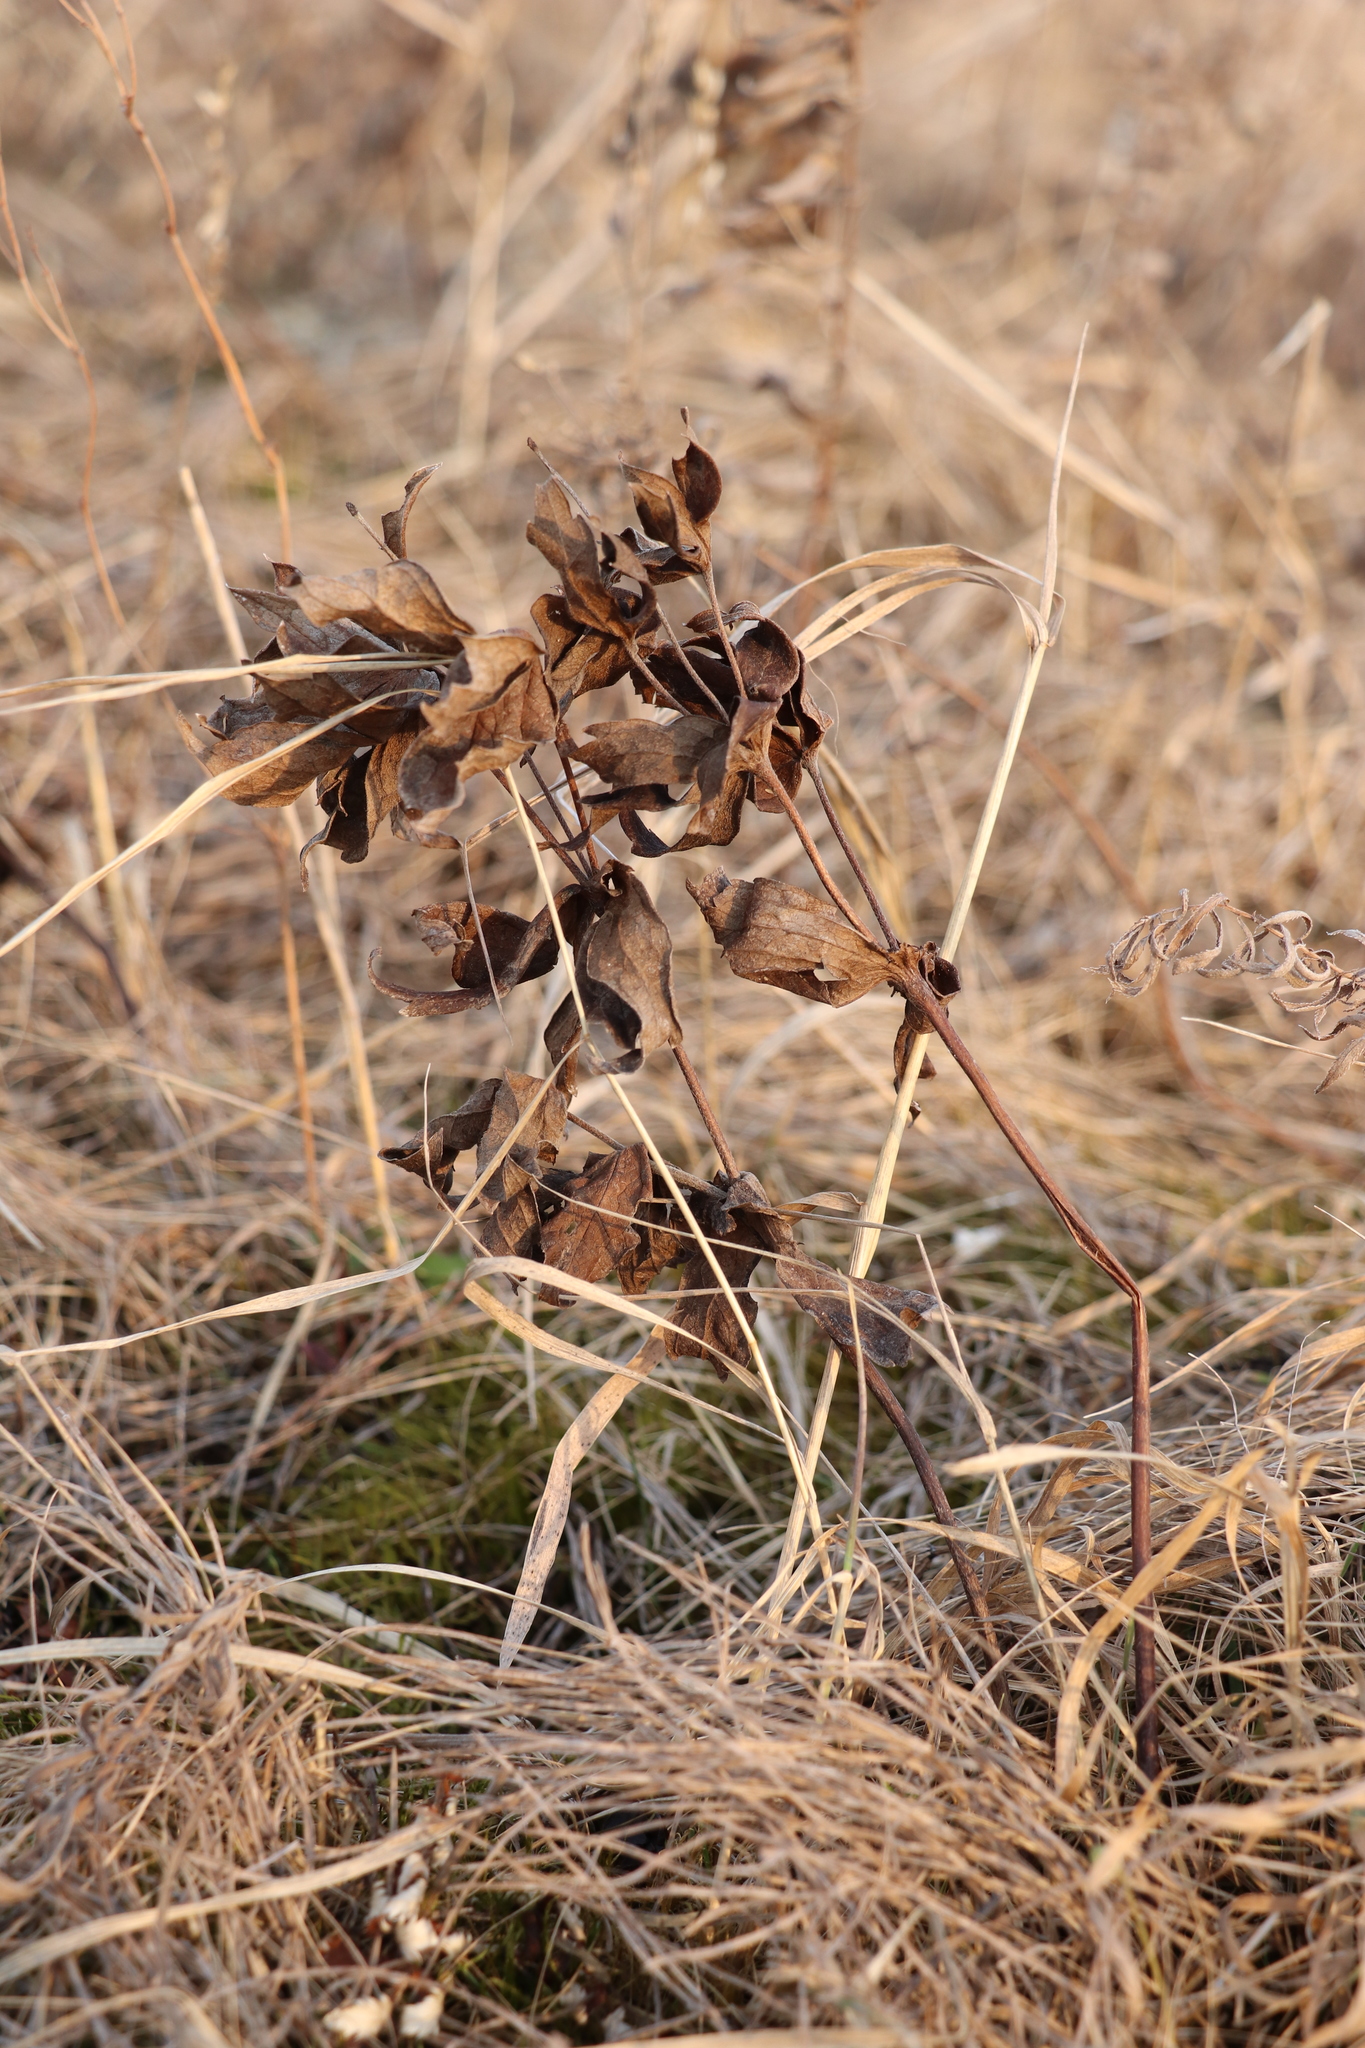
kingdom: Plantae
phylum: Tracheophyta
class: Magnoliopsida
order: Ranunculales
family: Ranunculaceae
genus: Anemonastrum
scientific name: Anemonastrum dichotomum
